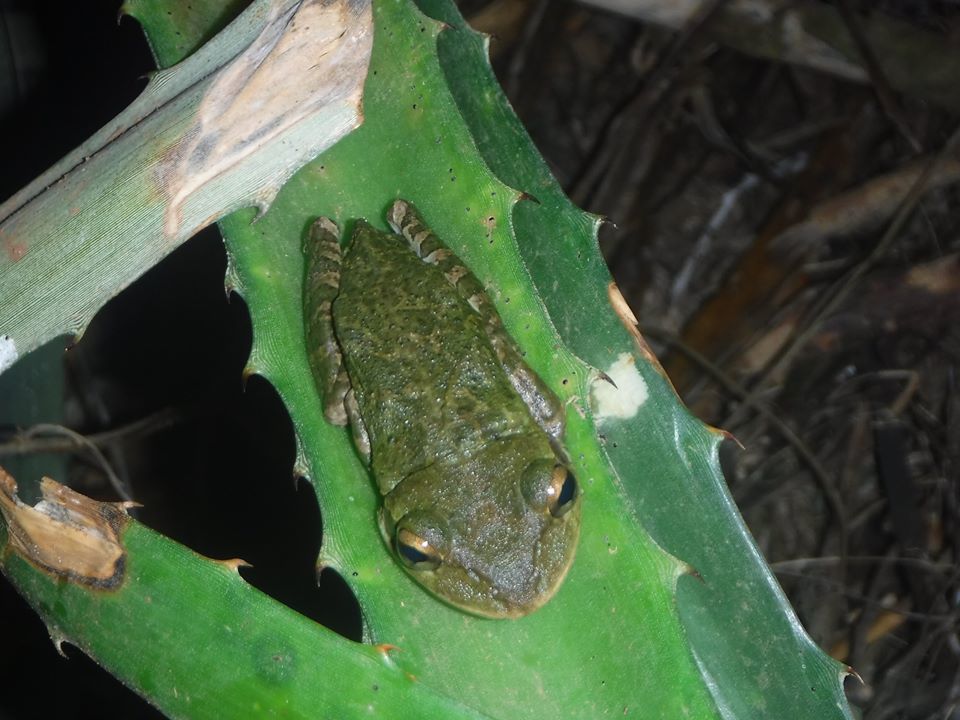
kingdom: Animalia
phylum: Chordata
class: Amphibia
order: Anura
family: Hylidae
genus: Osteopilus
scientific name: Osteopilus septentrionalis
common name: Cuban treefrog
